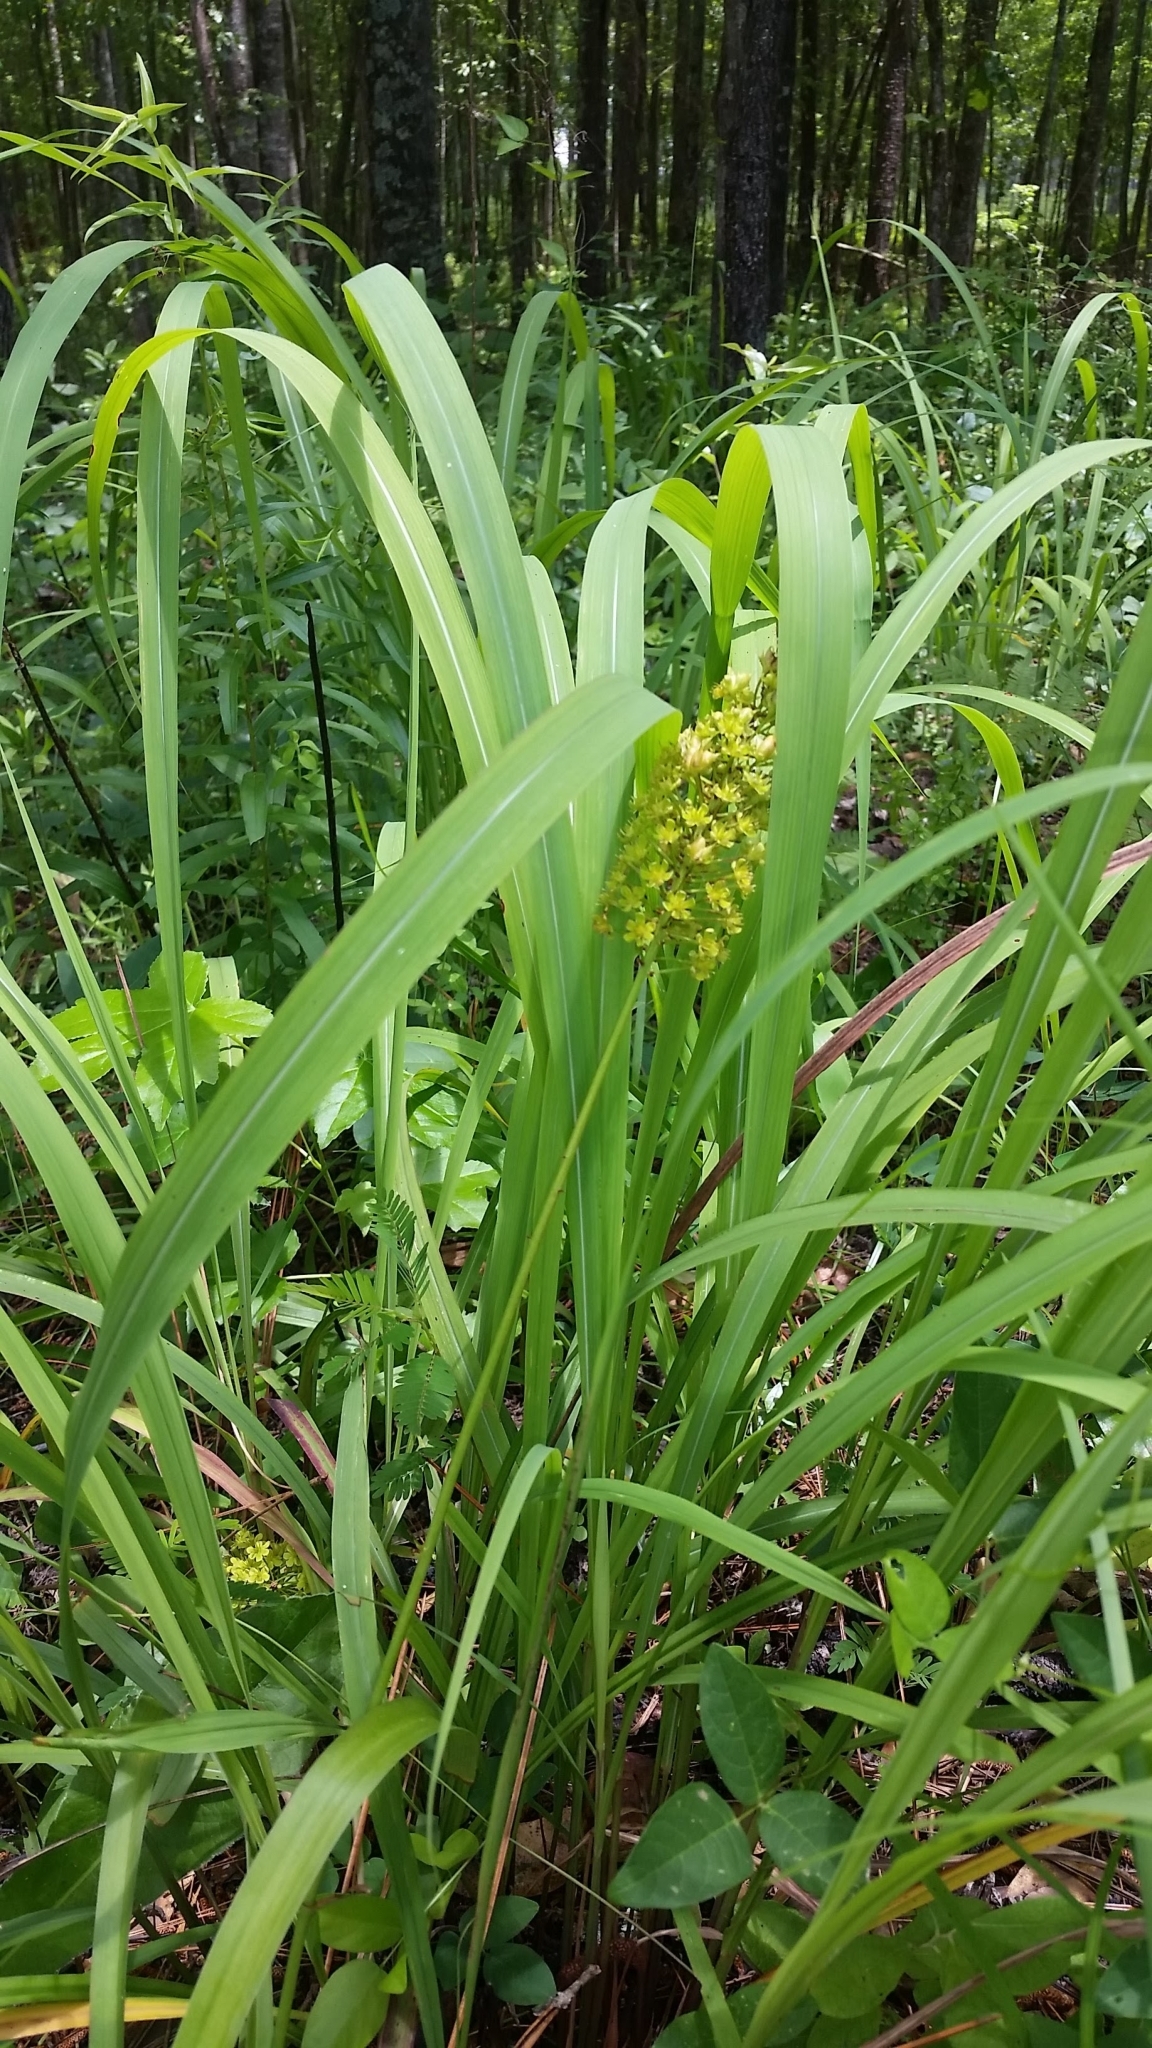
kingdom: Plantae
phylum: Tracheophyta
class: Liliopsida
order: Liliales
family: Melanthiaceae
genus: Amianthium
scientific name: Amianthium muscitoxicum
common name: Fly-poison
